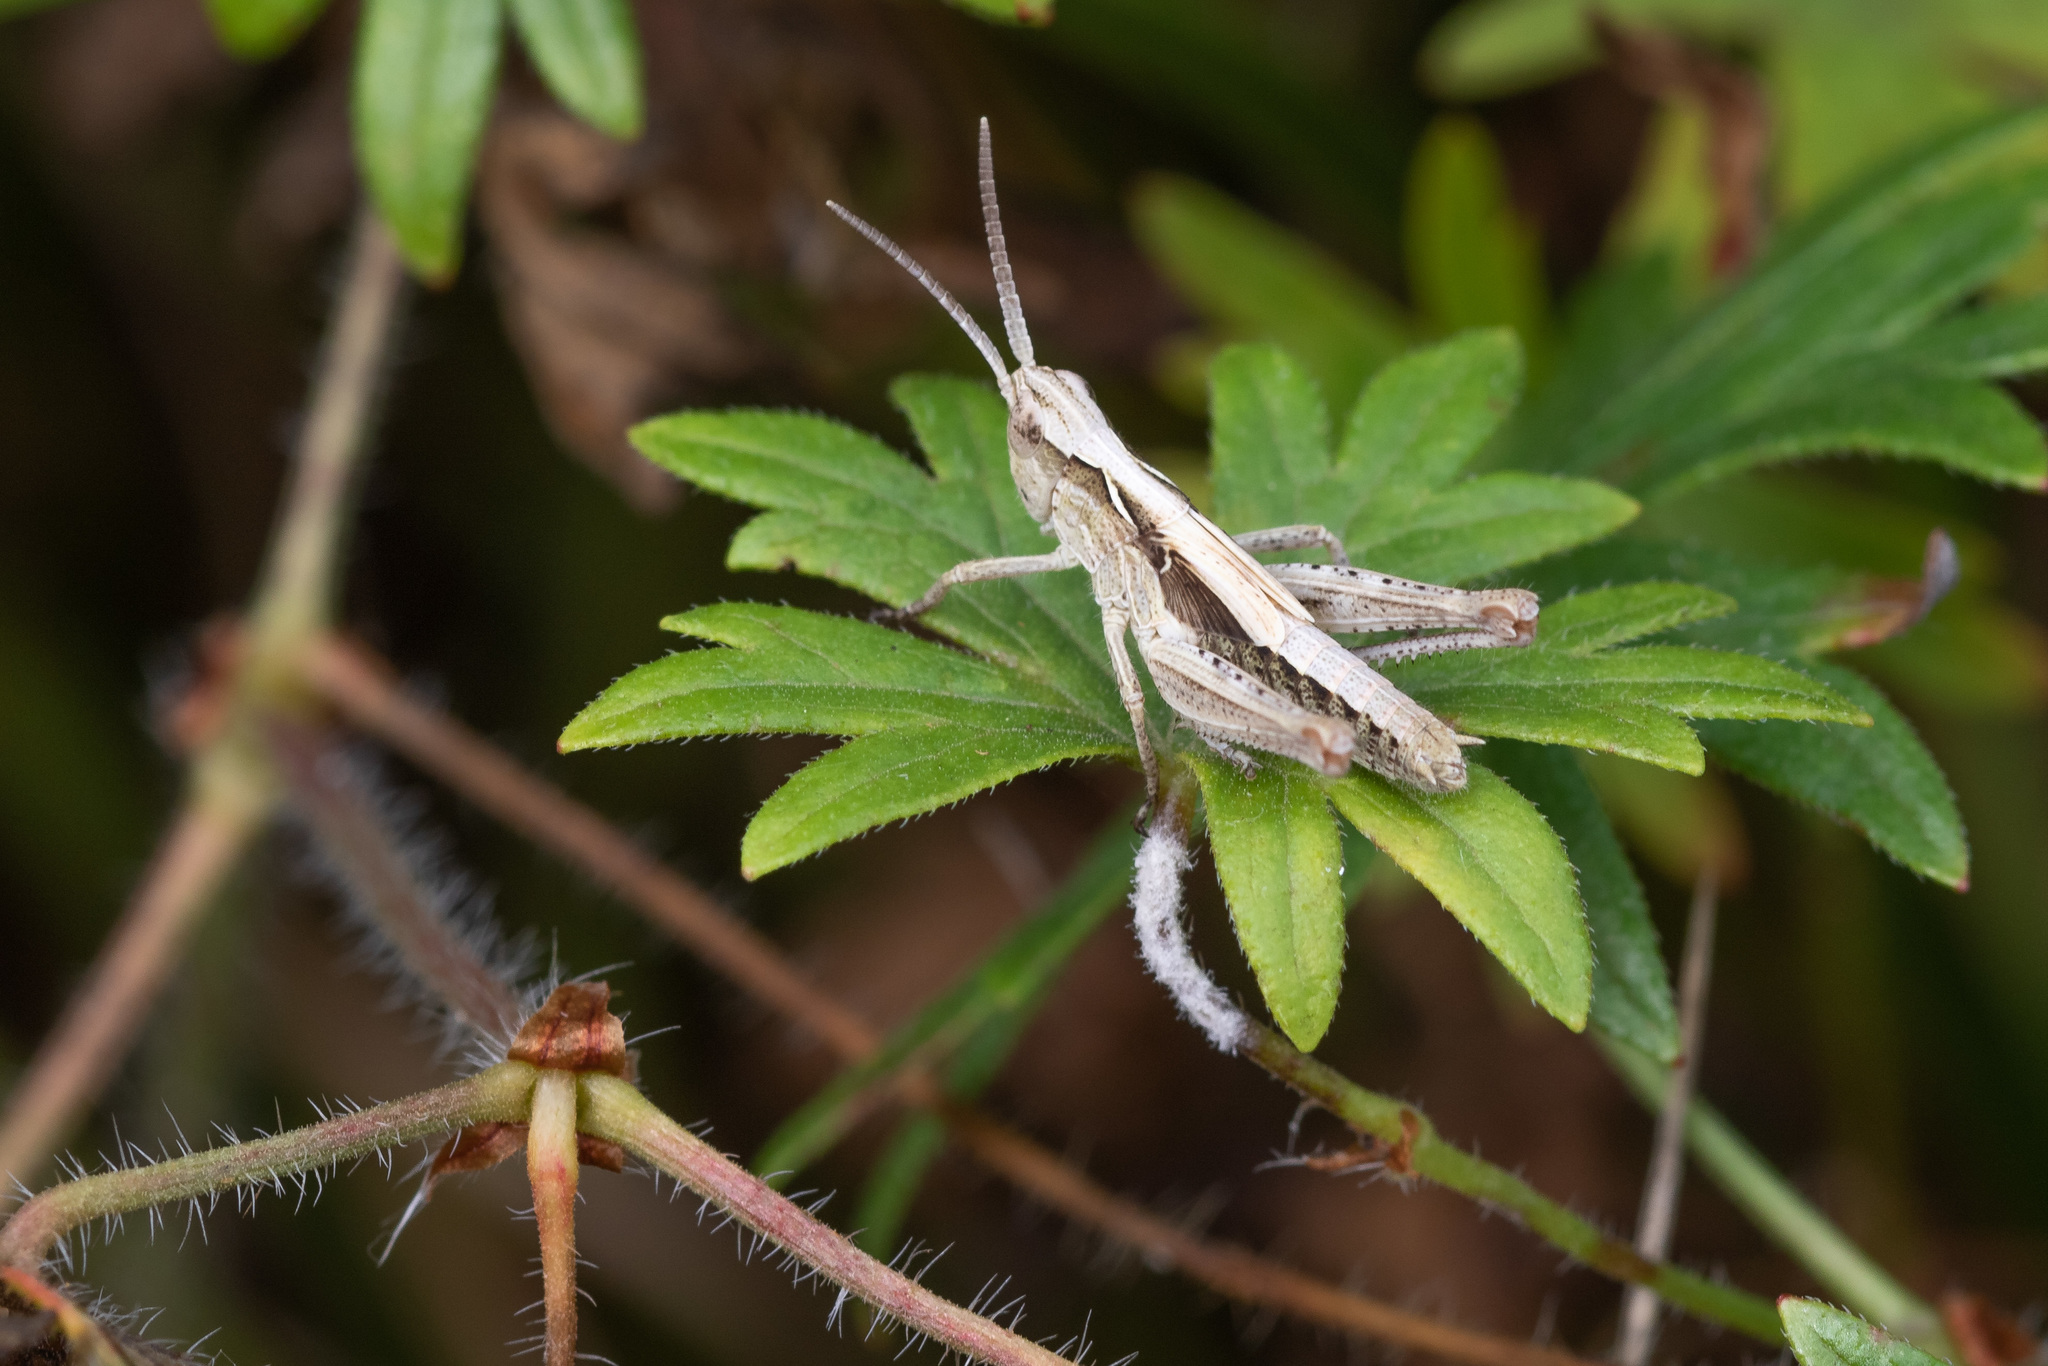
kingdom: Animalia
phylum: Arthropoda
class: Insecta
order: Orthoptera
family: Acrididae
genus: Chorthippus
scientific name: Chorthippus brunneus
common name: Field grasshopper
